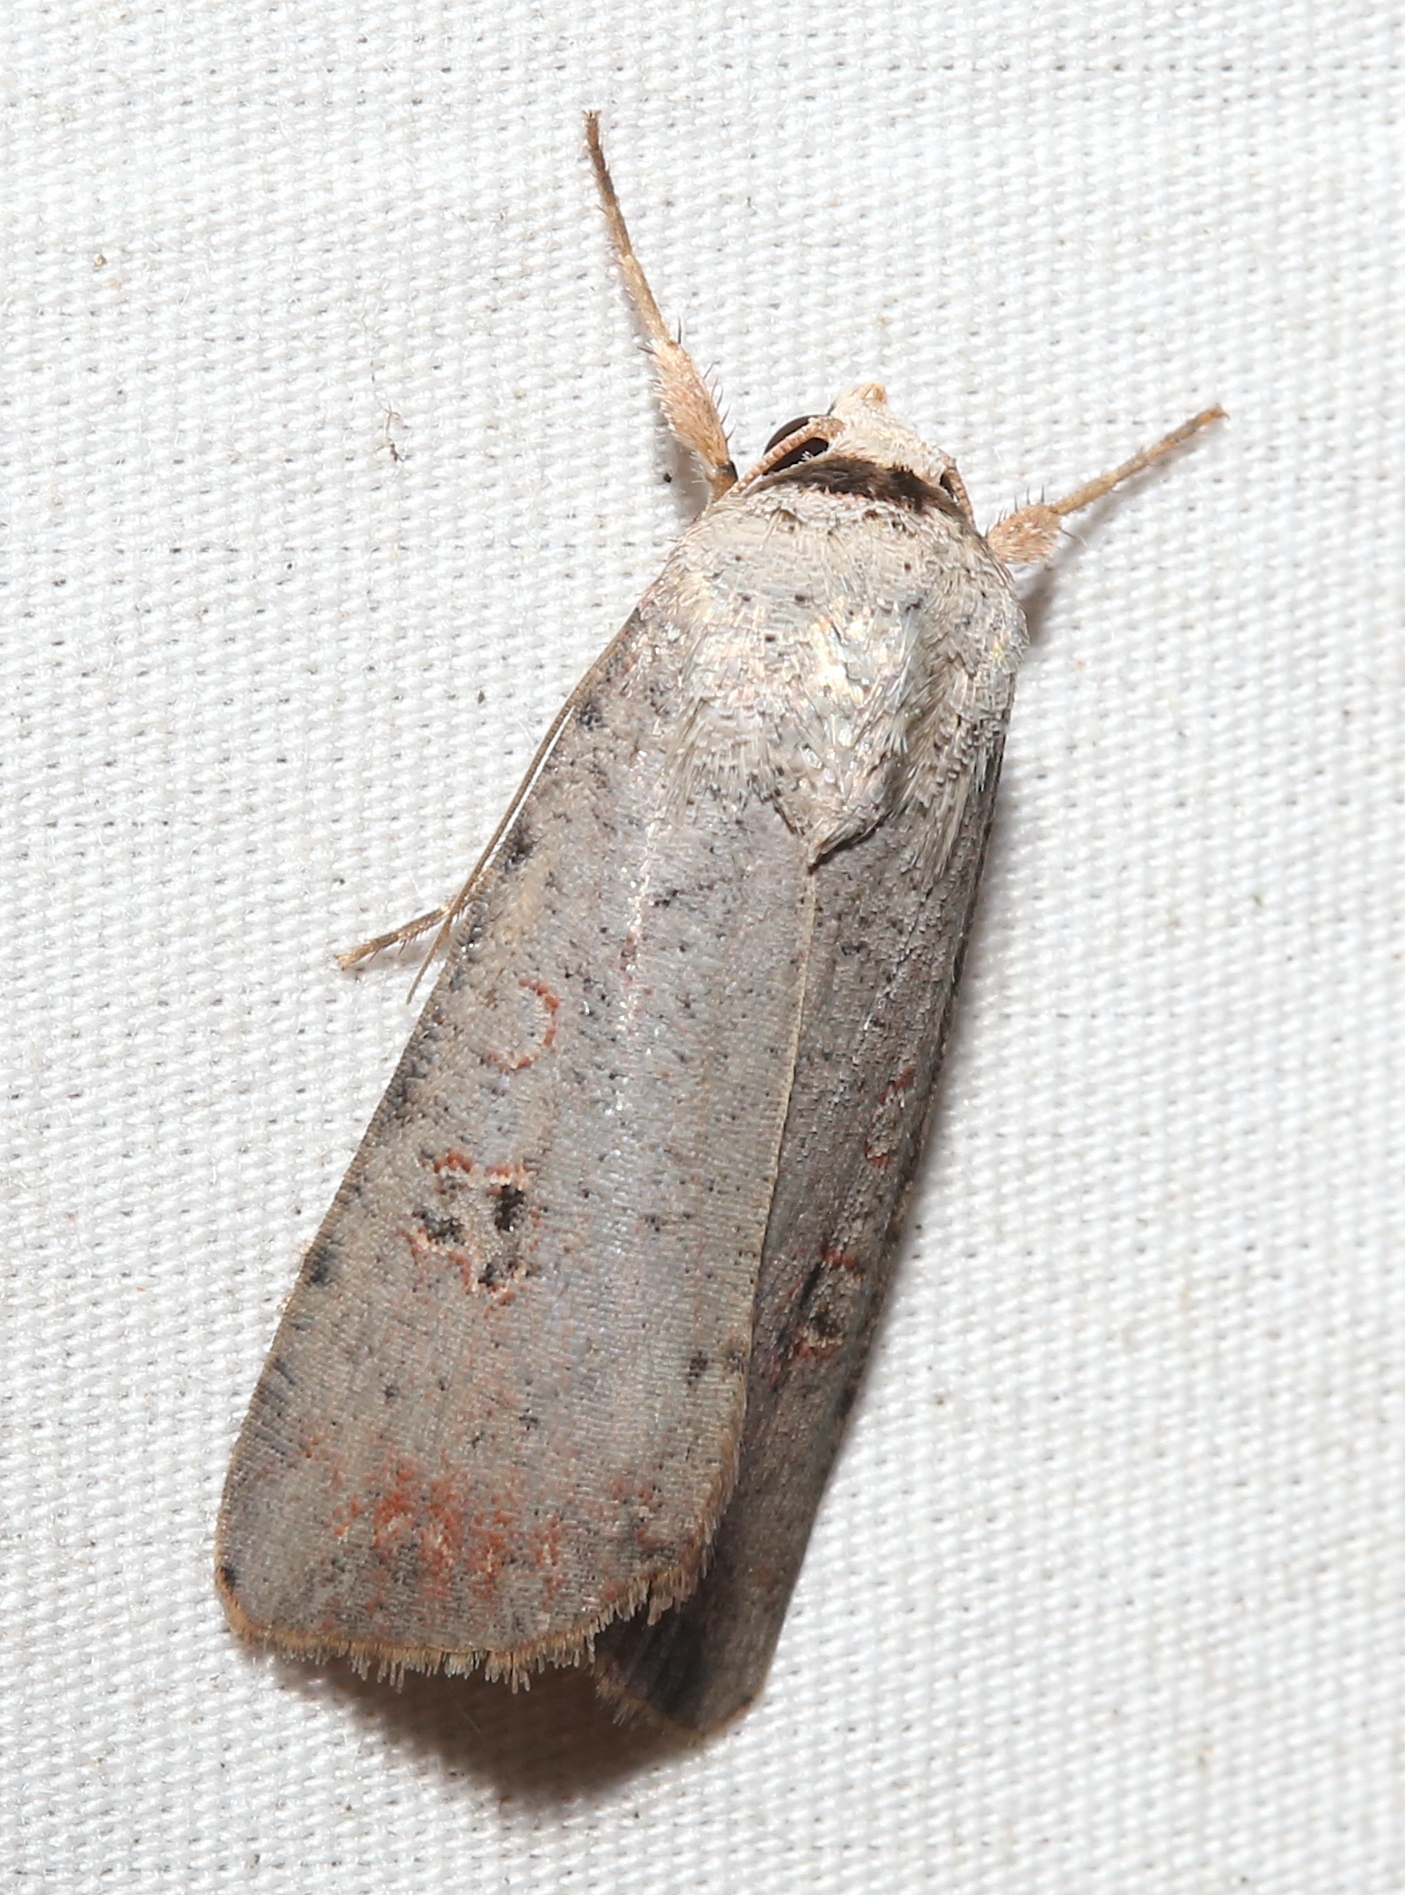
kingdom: Animalia
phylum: Arthropoda
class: Insecta
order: Lepidoptera
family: Noctuidae
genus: Anicla
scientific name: Anicla infecta
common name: Green cutworm
